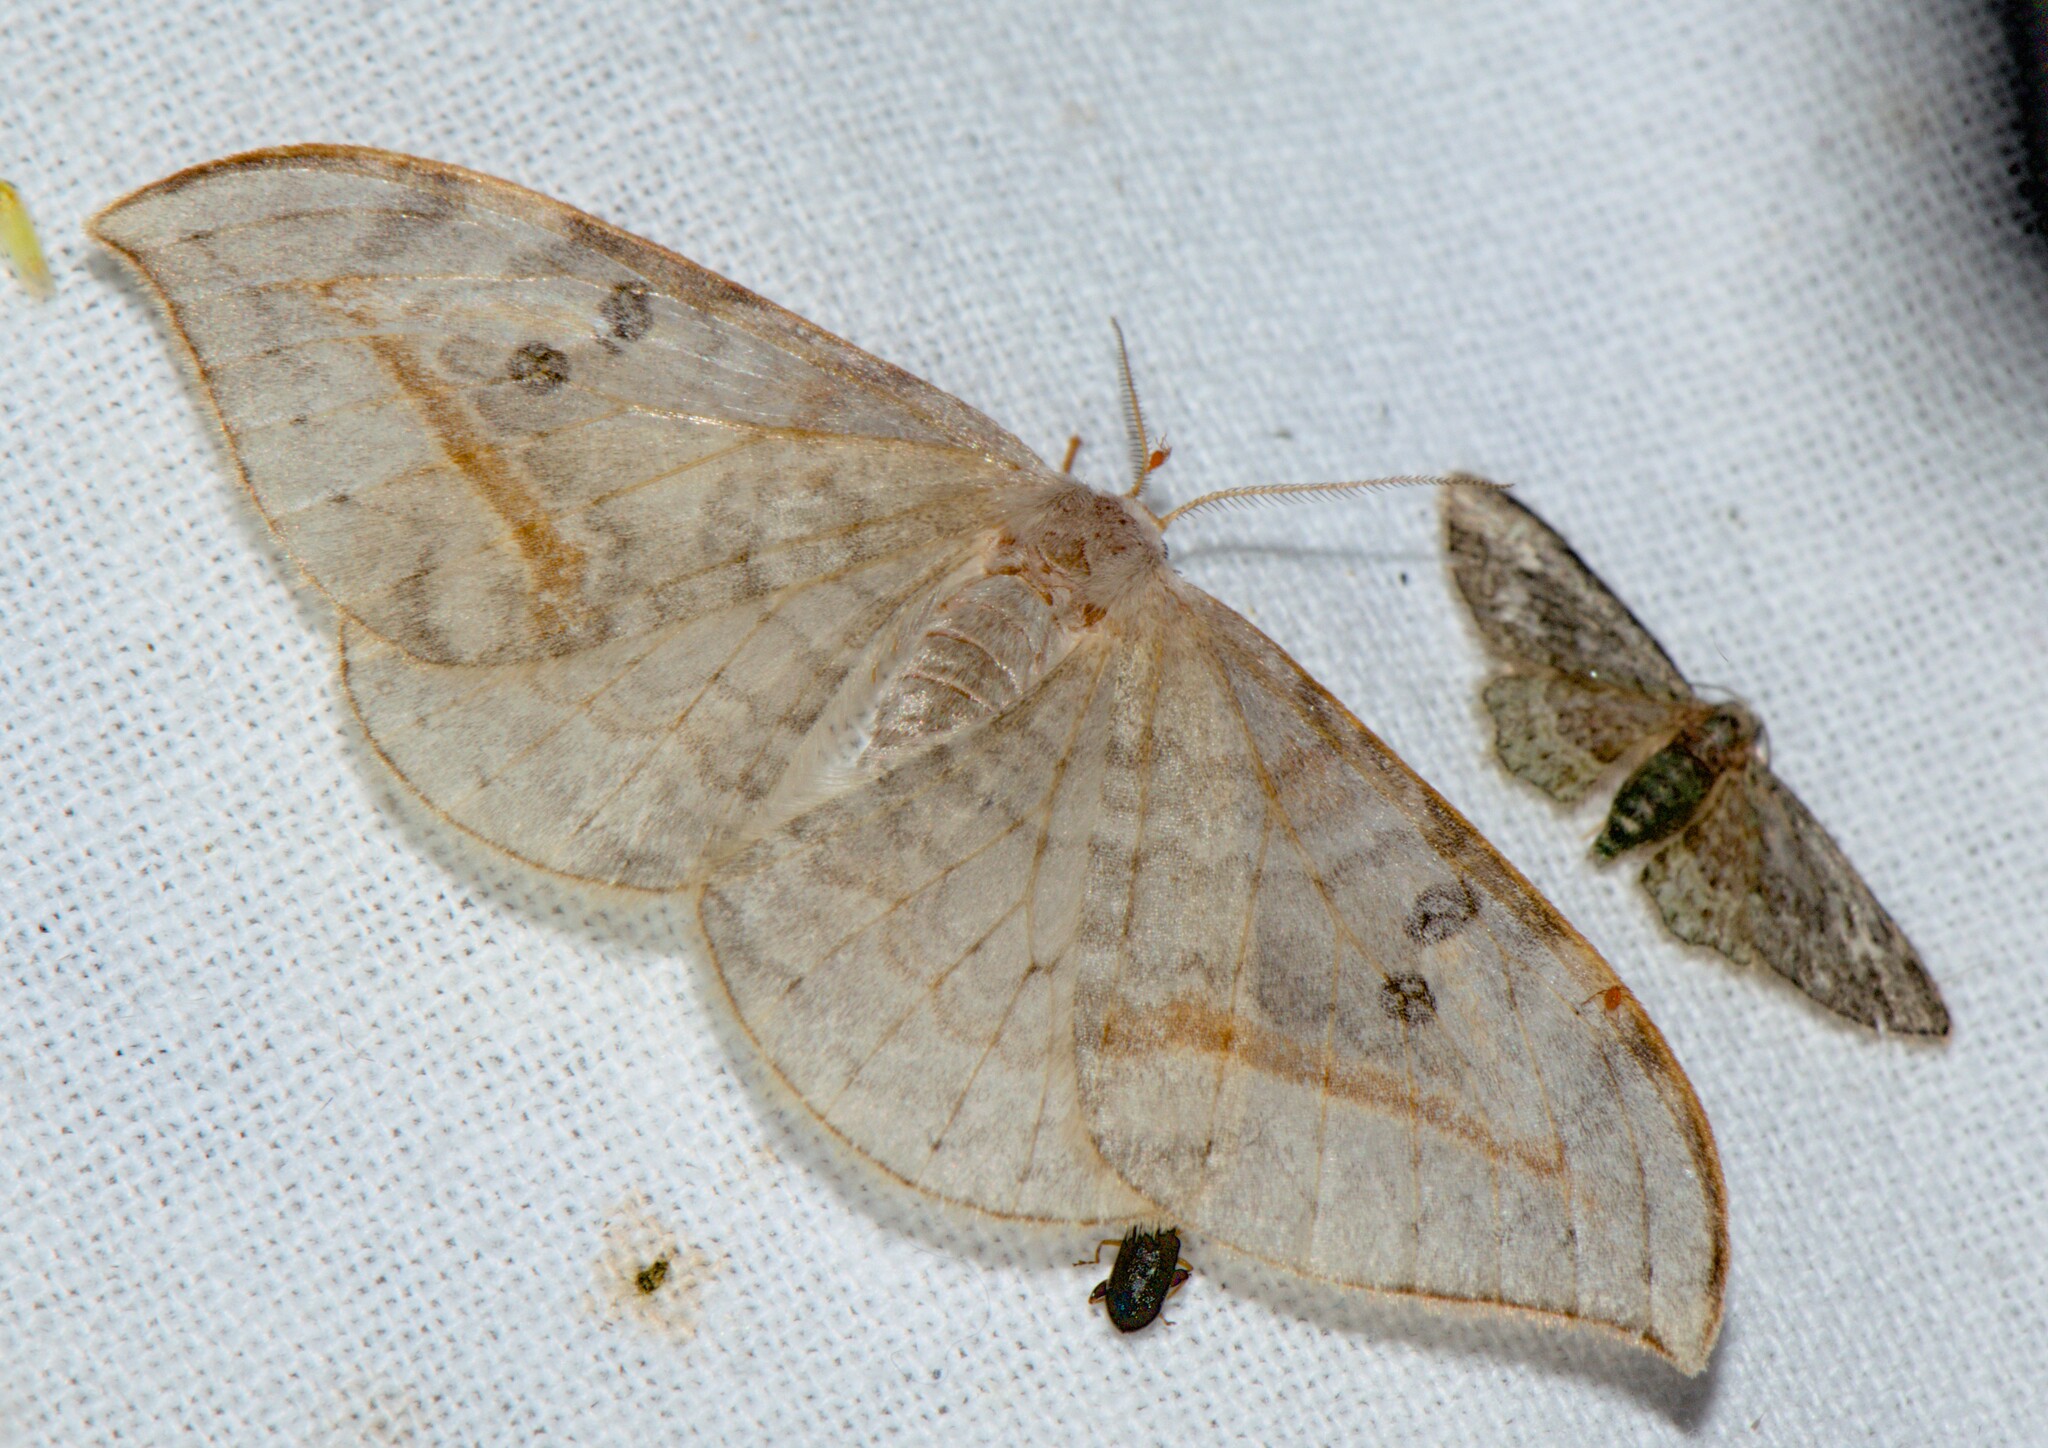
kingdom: Animalia
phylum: Arthropoda
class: Insecta
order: Lepidoptera
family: Drepanidae
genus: Drepana
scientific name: Drepana pallida
